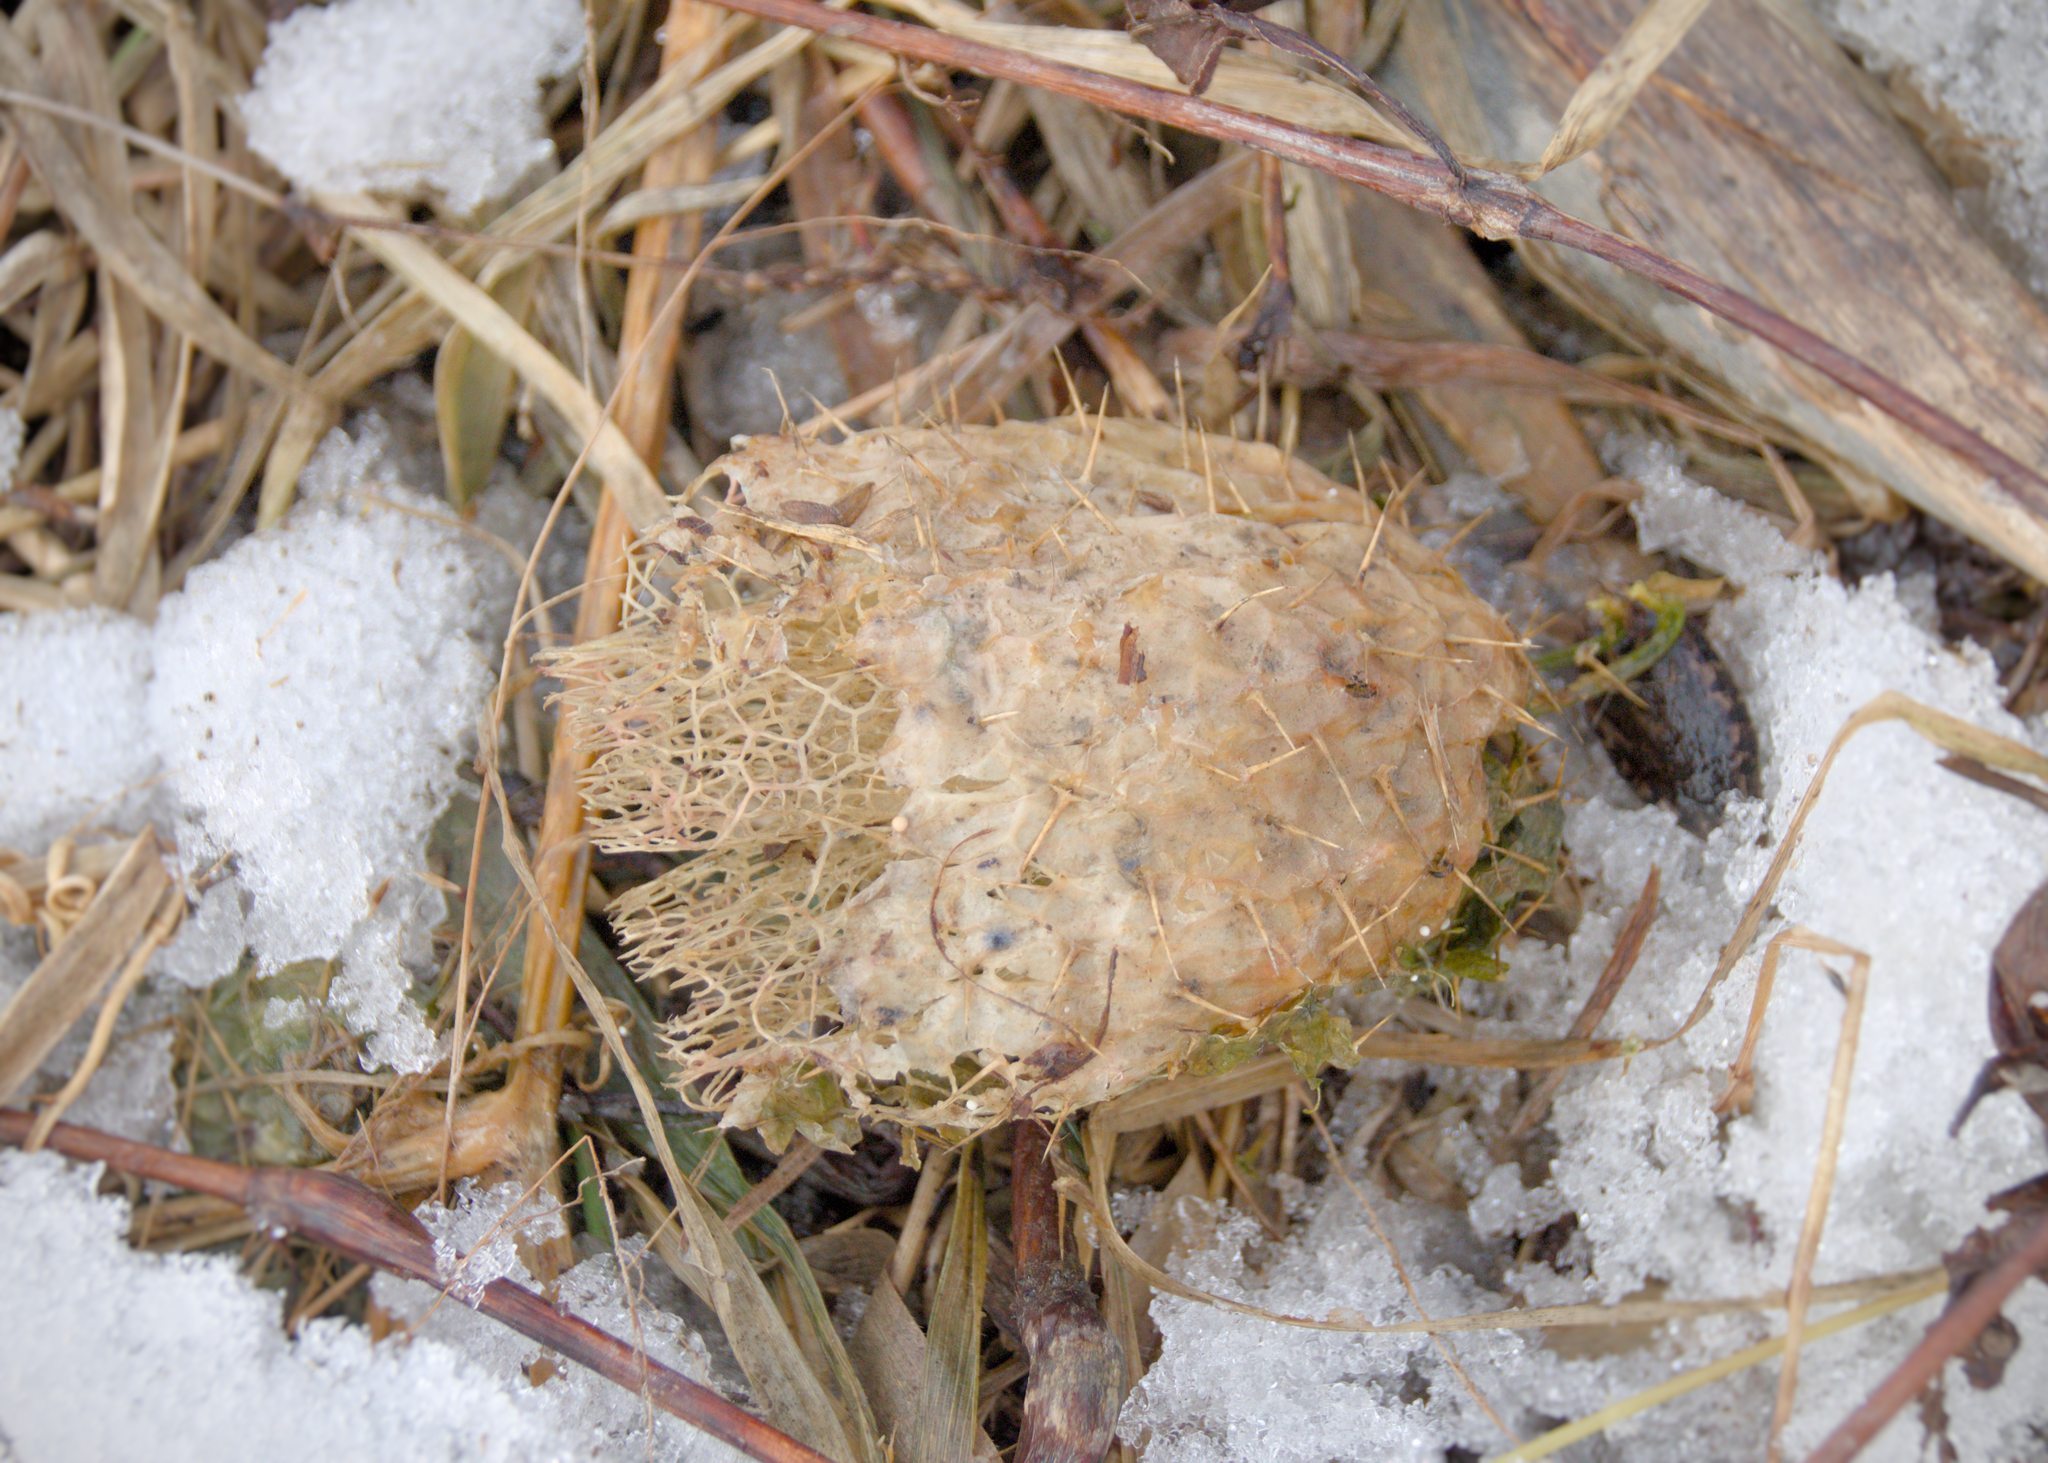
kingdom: Plantae
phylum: Tracheophyta
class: Magnoliopsida
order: Cucurbitales
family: Cucurbitaceae
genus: Echinocystis
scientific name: Echinocystis lobata
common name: Wild cucumber
